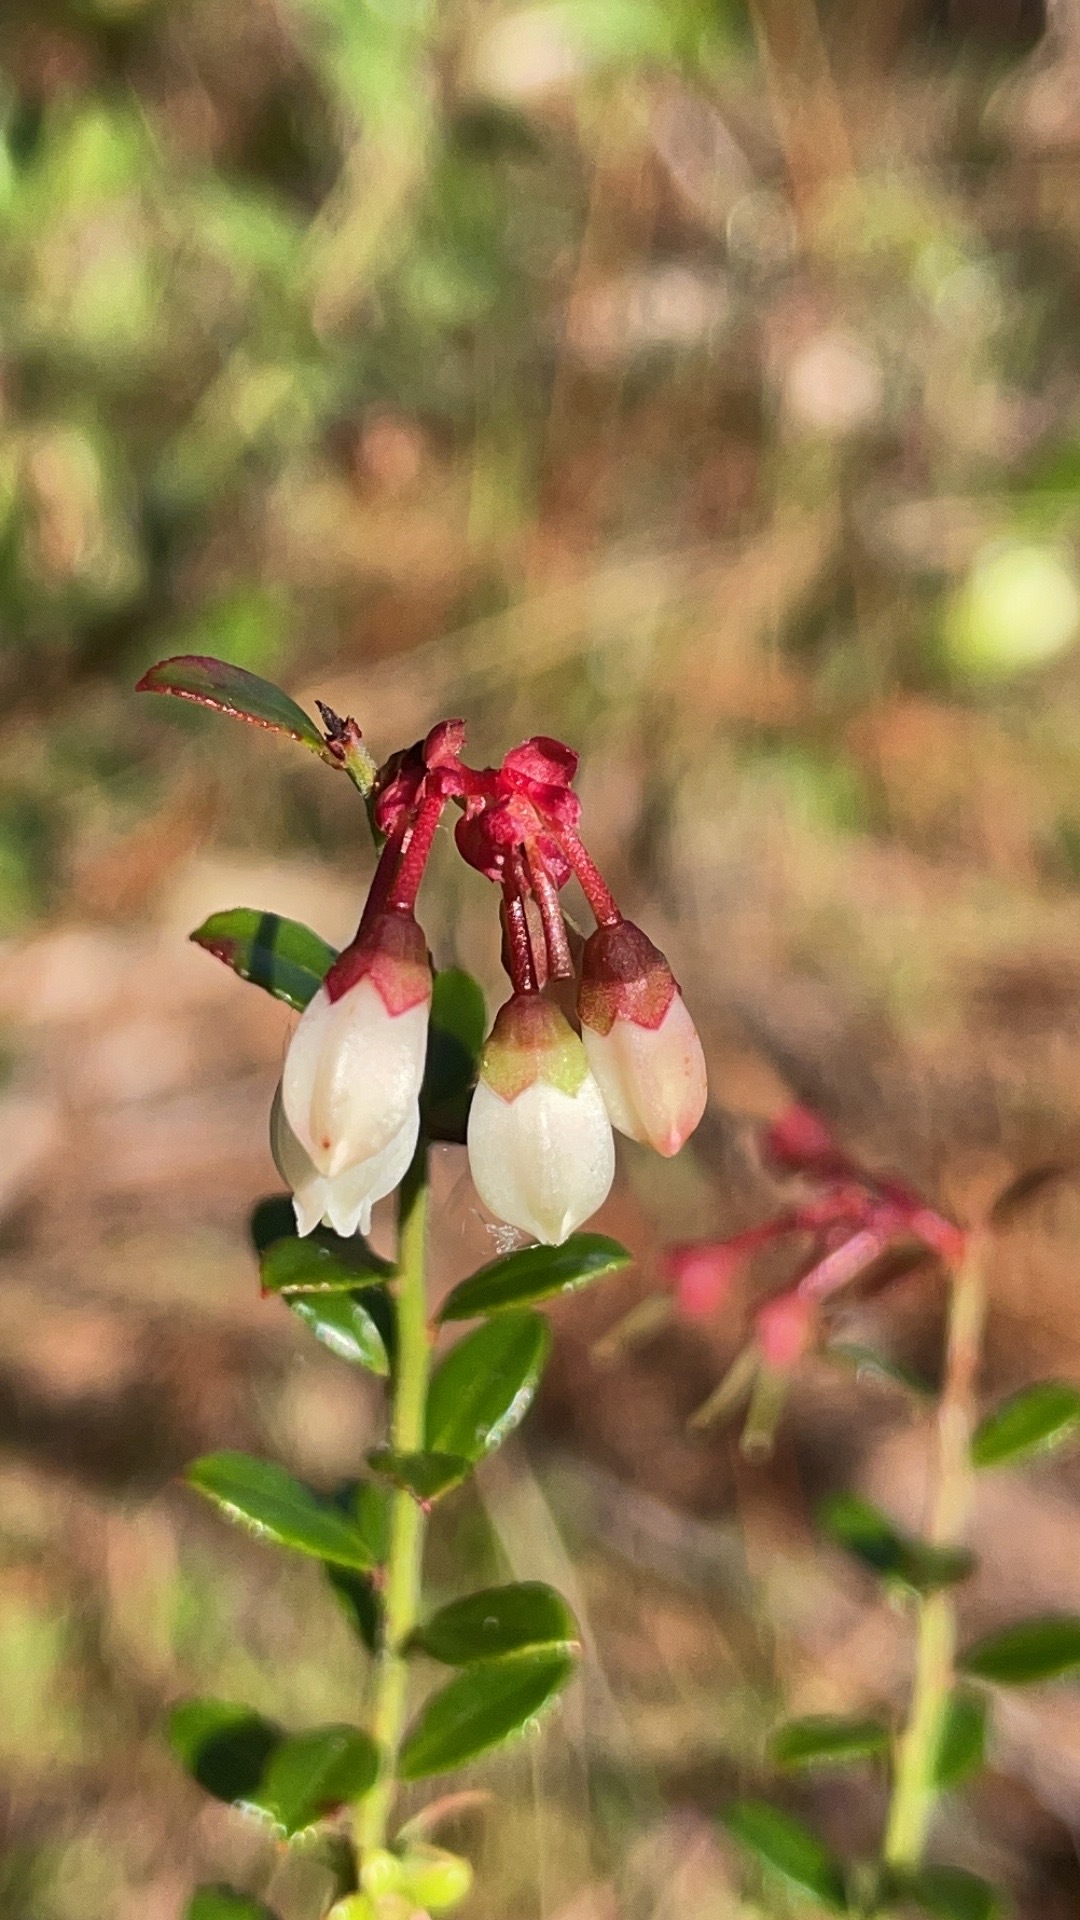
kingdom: Plantae
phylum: Tracheophyta
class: Magnoliopsida
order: Ericales
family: Ericaceae
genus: Vaccinium
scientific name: Vaccinium myrsinites
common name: Evergreen blueberry
